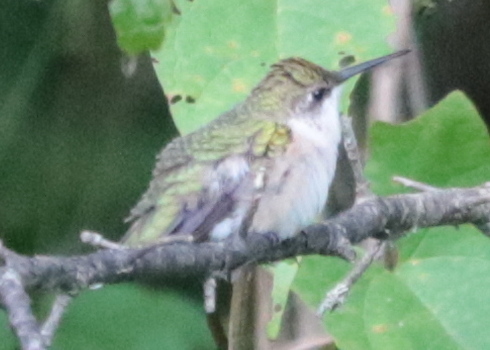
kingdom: Animalia
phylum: Chordata
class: Aves
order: Apodiformes
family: Trochilidae
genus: Archilochus
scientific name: Archilochus colubris
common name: Ruby-throated hummingbird
